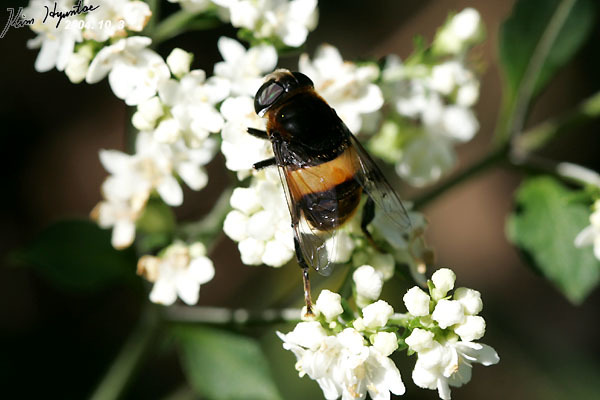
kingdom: Animalia
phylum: Arthropoda
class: Insecta
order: Diptera
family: Syrphidae
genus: Phytomia
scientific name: Phytomia zonata
